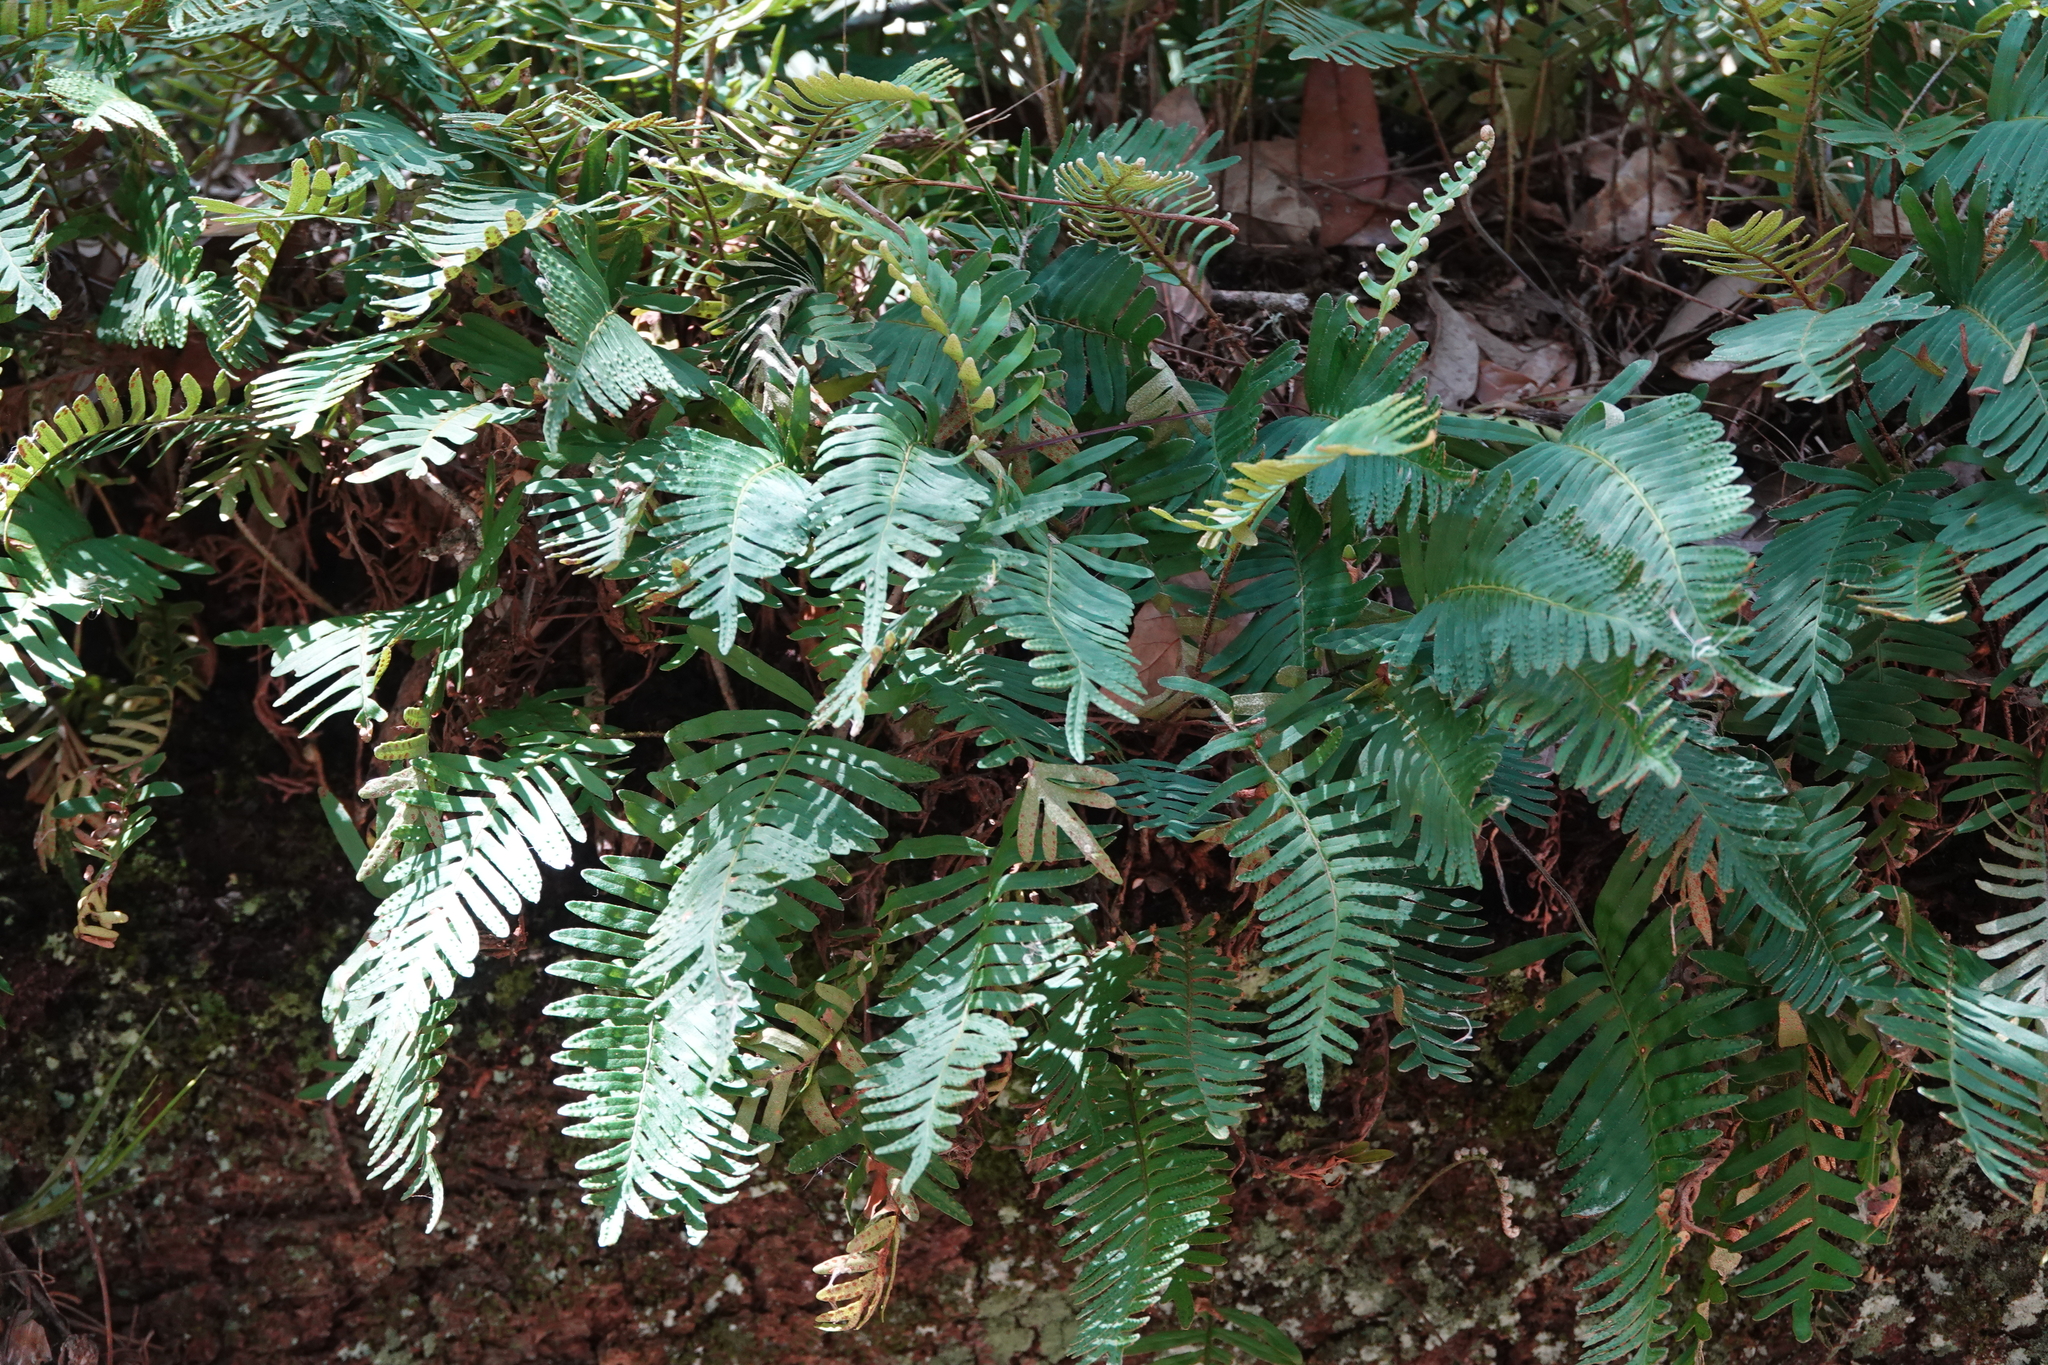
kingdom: Plantae
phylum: Tracheophyta
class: Polypodiopsida
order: Polypodiales
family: Polypodiaceae
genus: Pleopeltis
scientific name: Pleopeltis michauxiana
